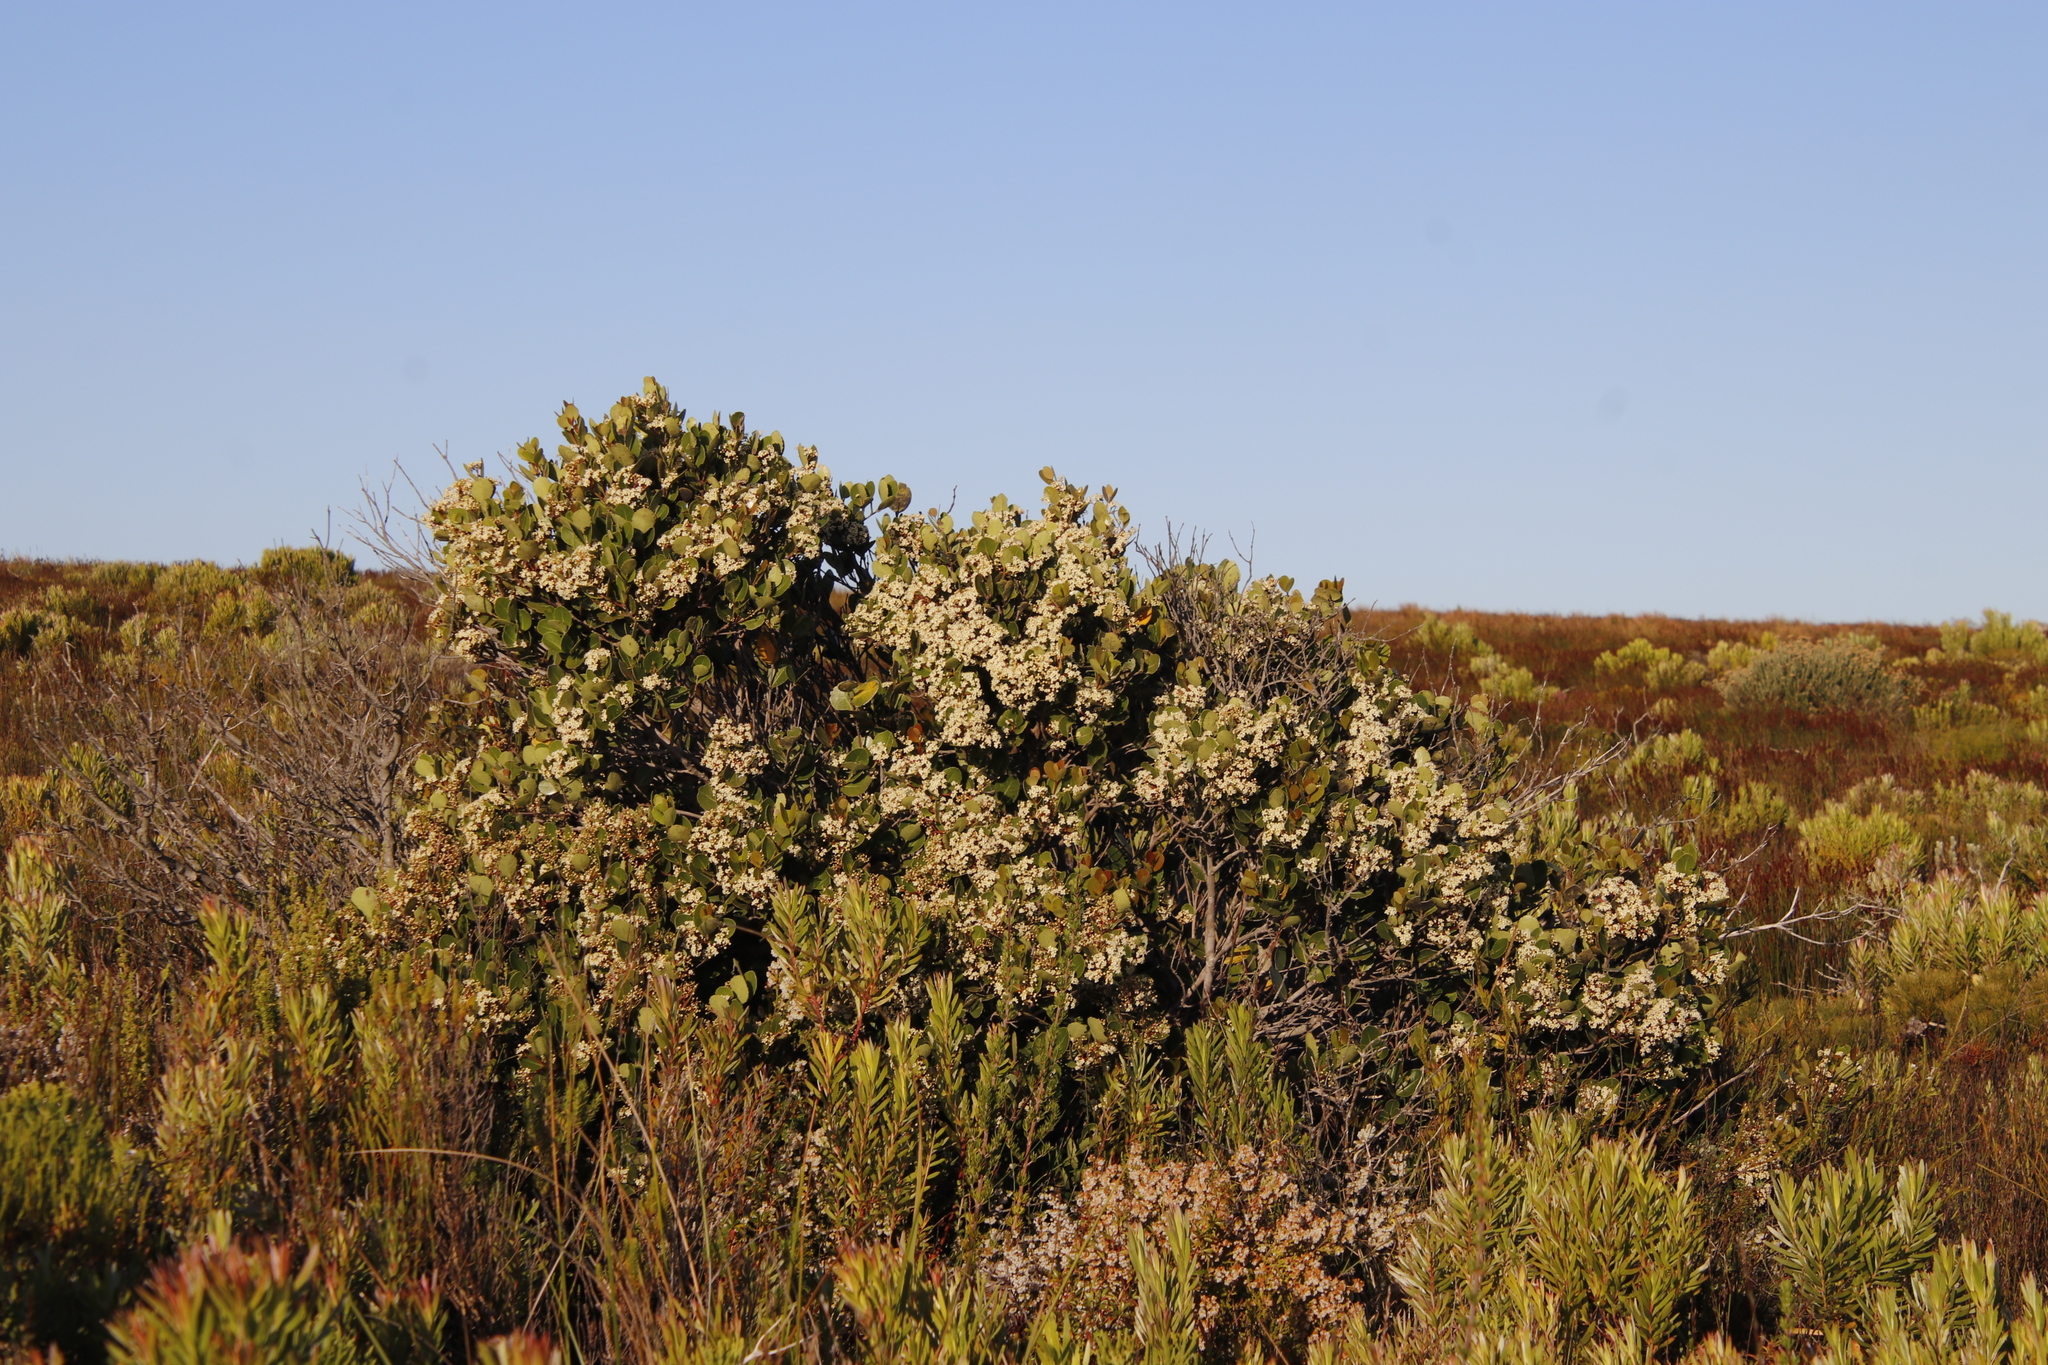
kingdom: Plantae
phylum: Tracheophyta
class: Magnoliopsida
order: Celastrales
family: Celastraceae
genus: Cassine
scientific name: Cassine peragua
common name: Cape saffron
